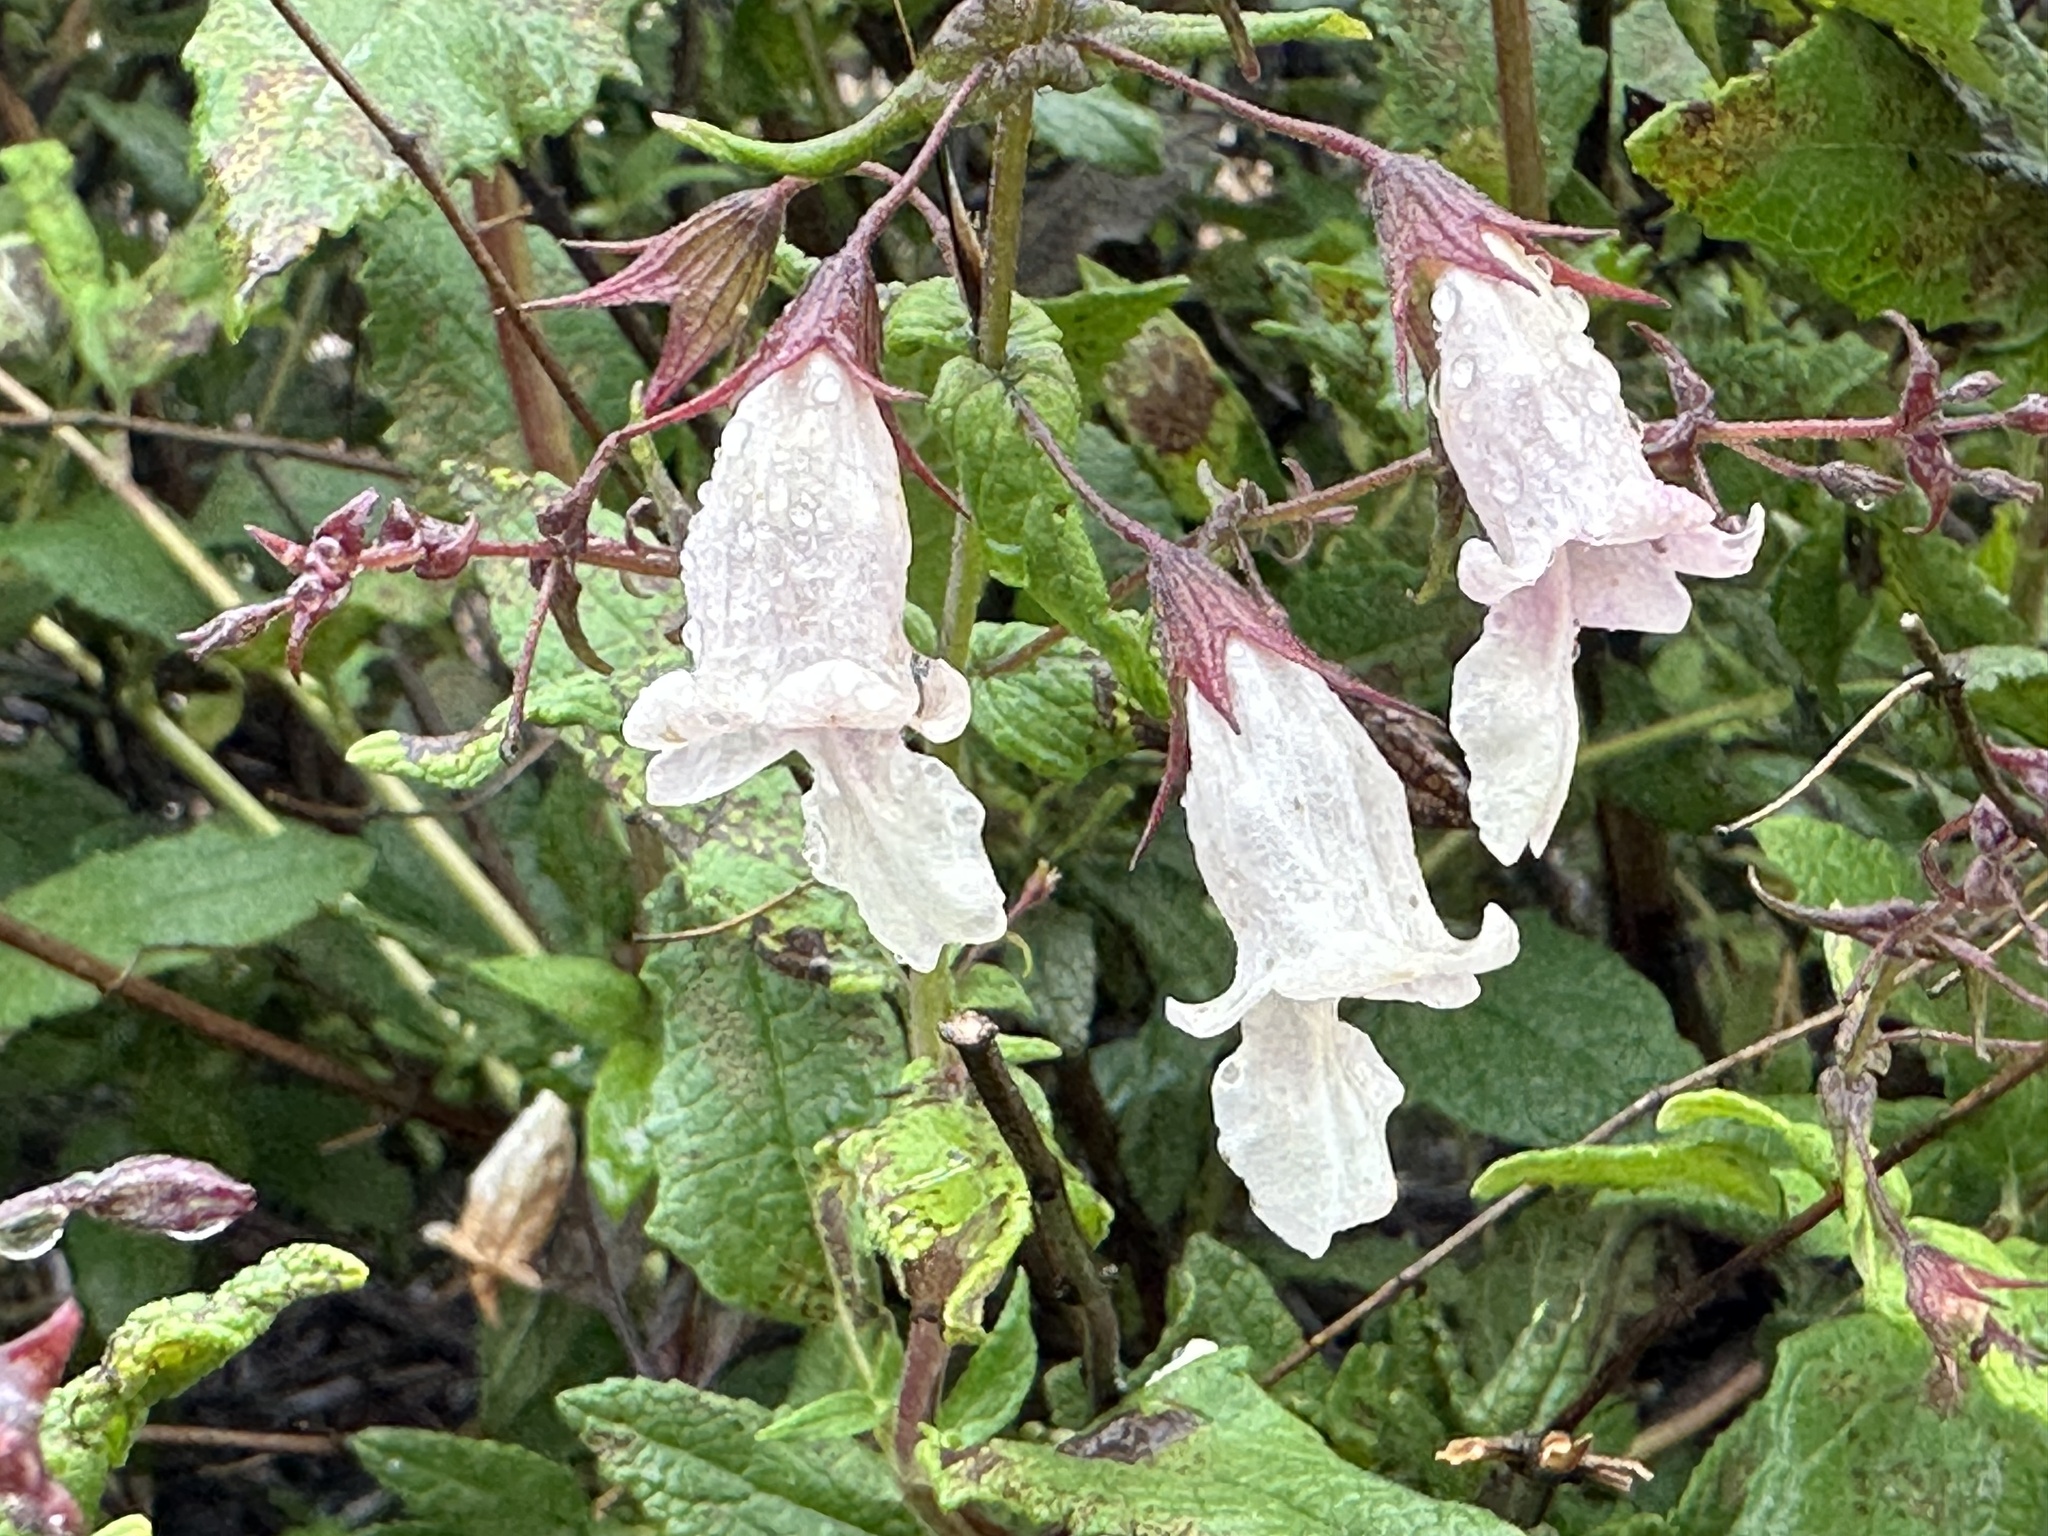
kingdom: Plantae
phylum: Tracheophyta
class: Magnoliopsida
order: Lamiales
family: Lamiaceae
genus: Lepechinia
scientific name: Lepechinia ganderi
